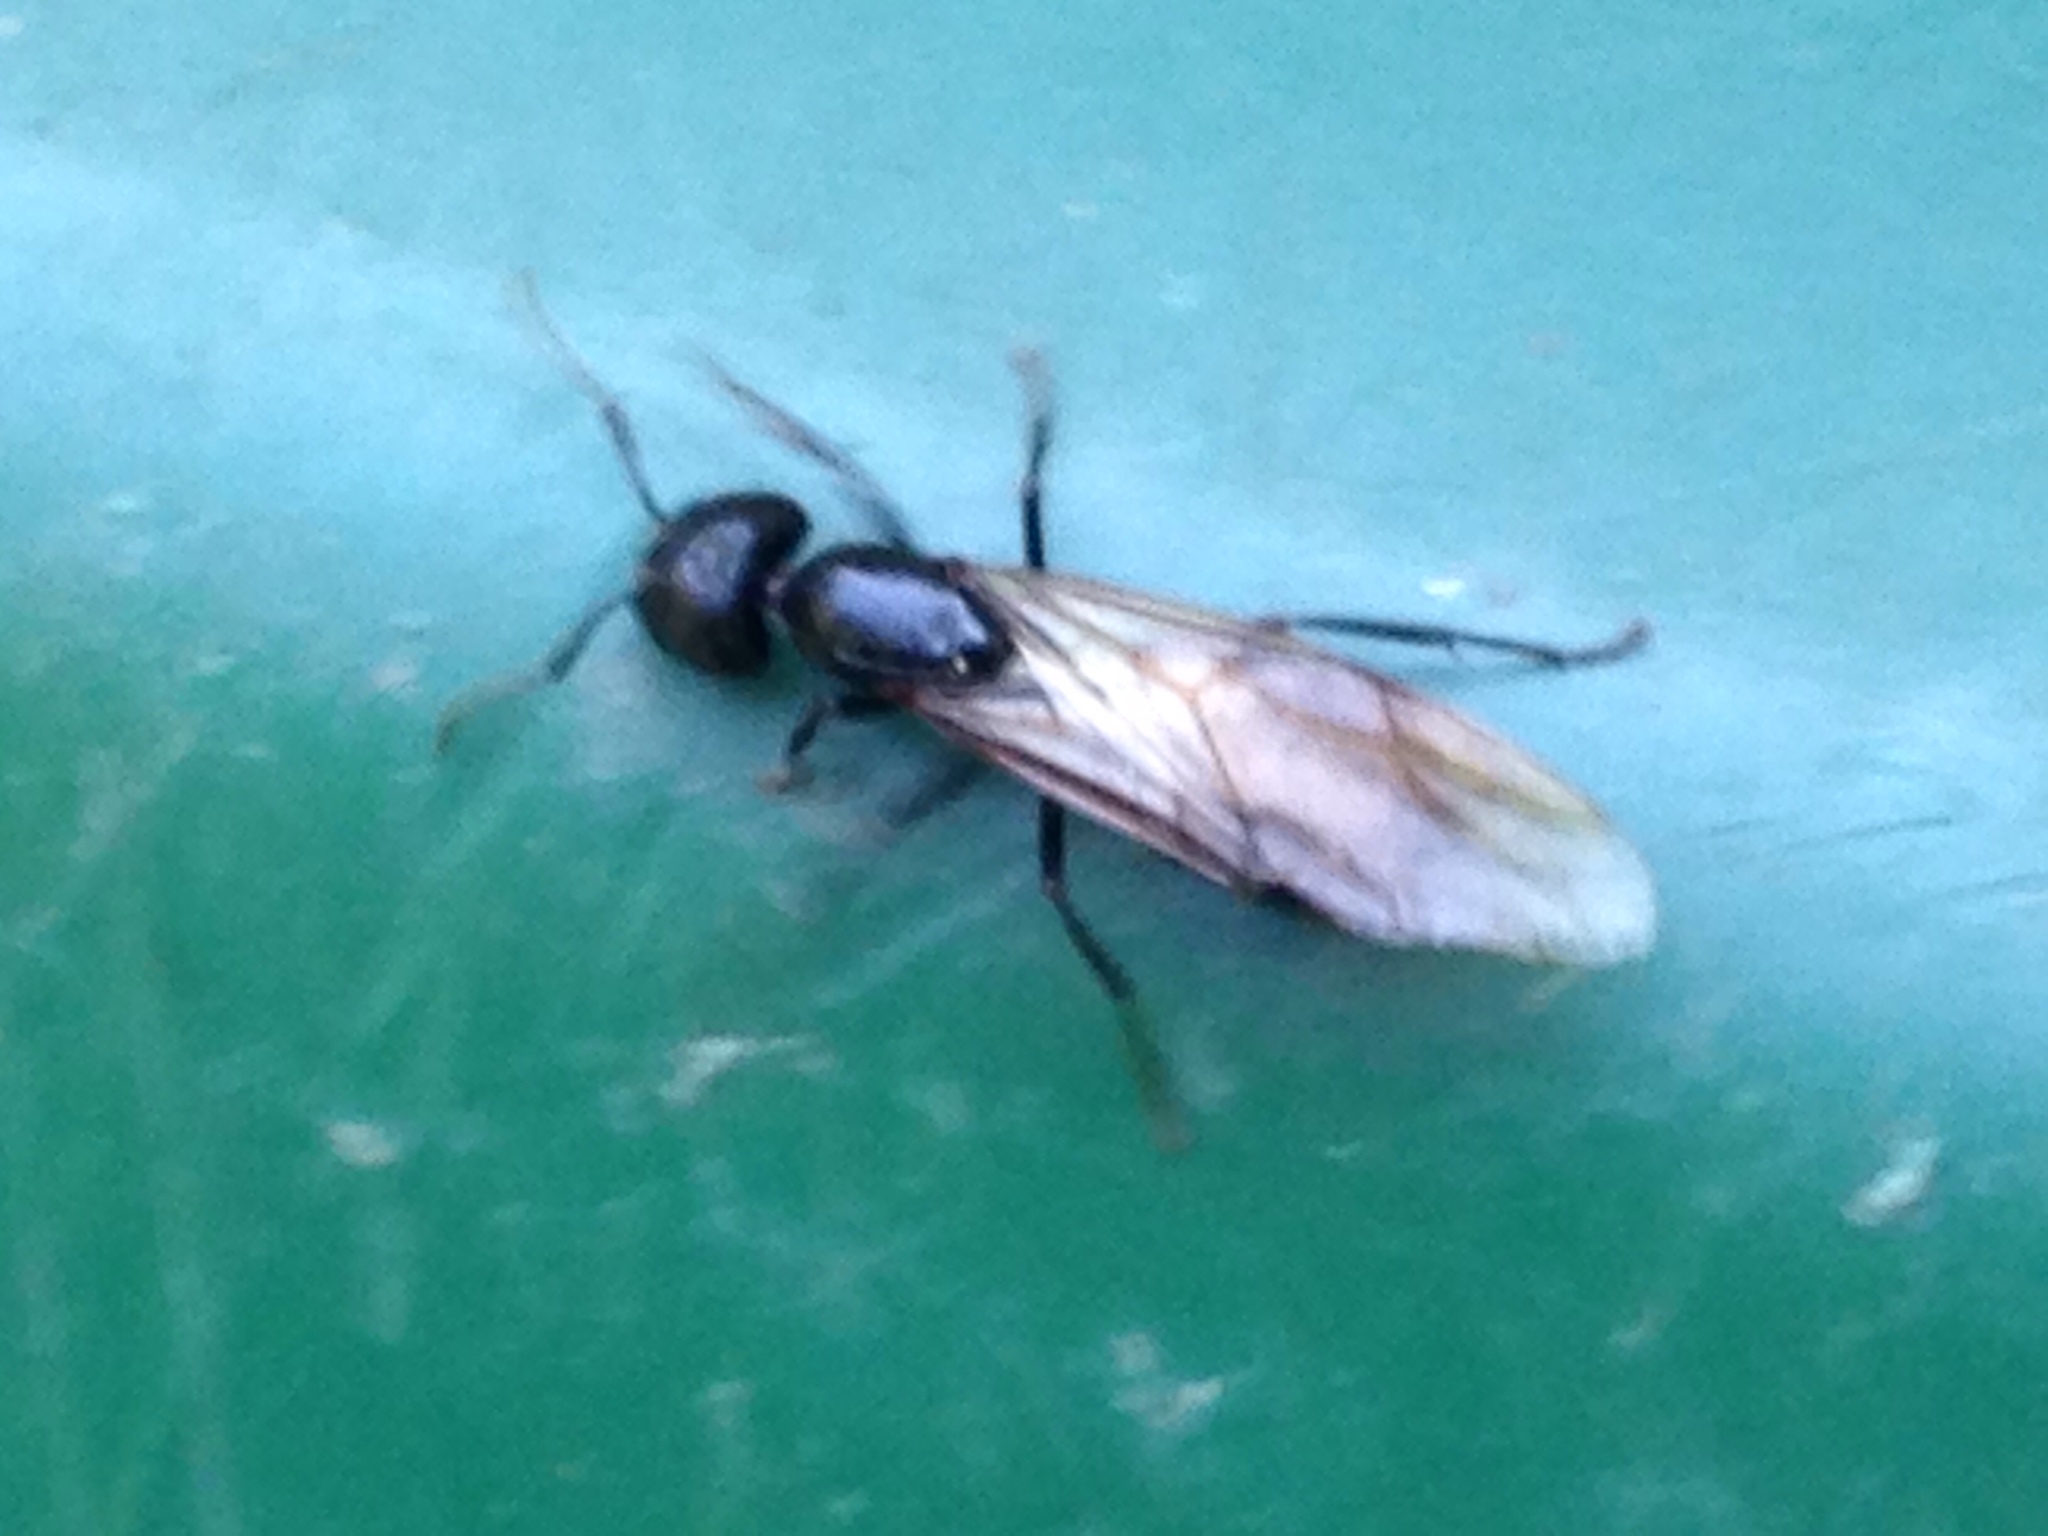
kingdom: Animalia
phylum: Arthropoda
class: Insecta
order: Hymenoptera
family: Formicidae
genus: Camponotus
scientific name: Camponotus pennsylvanicus
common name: Black carpenter ant
